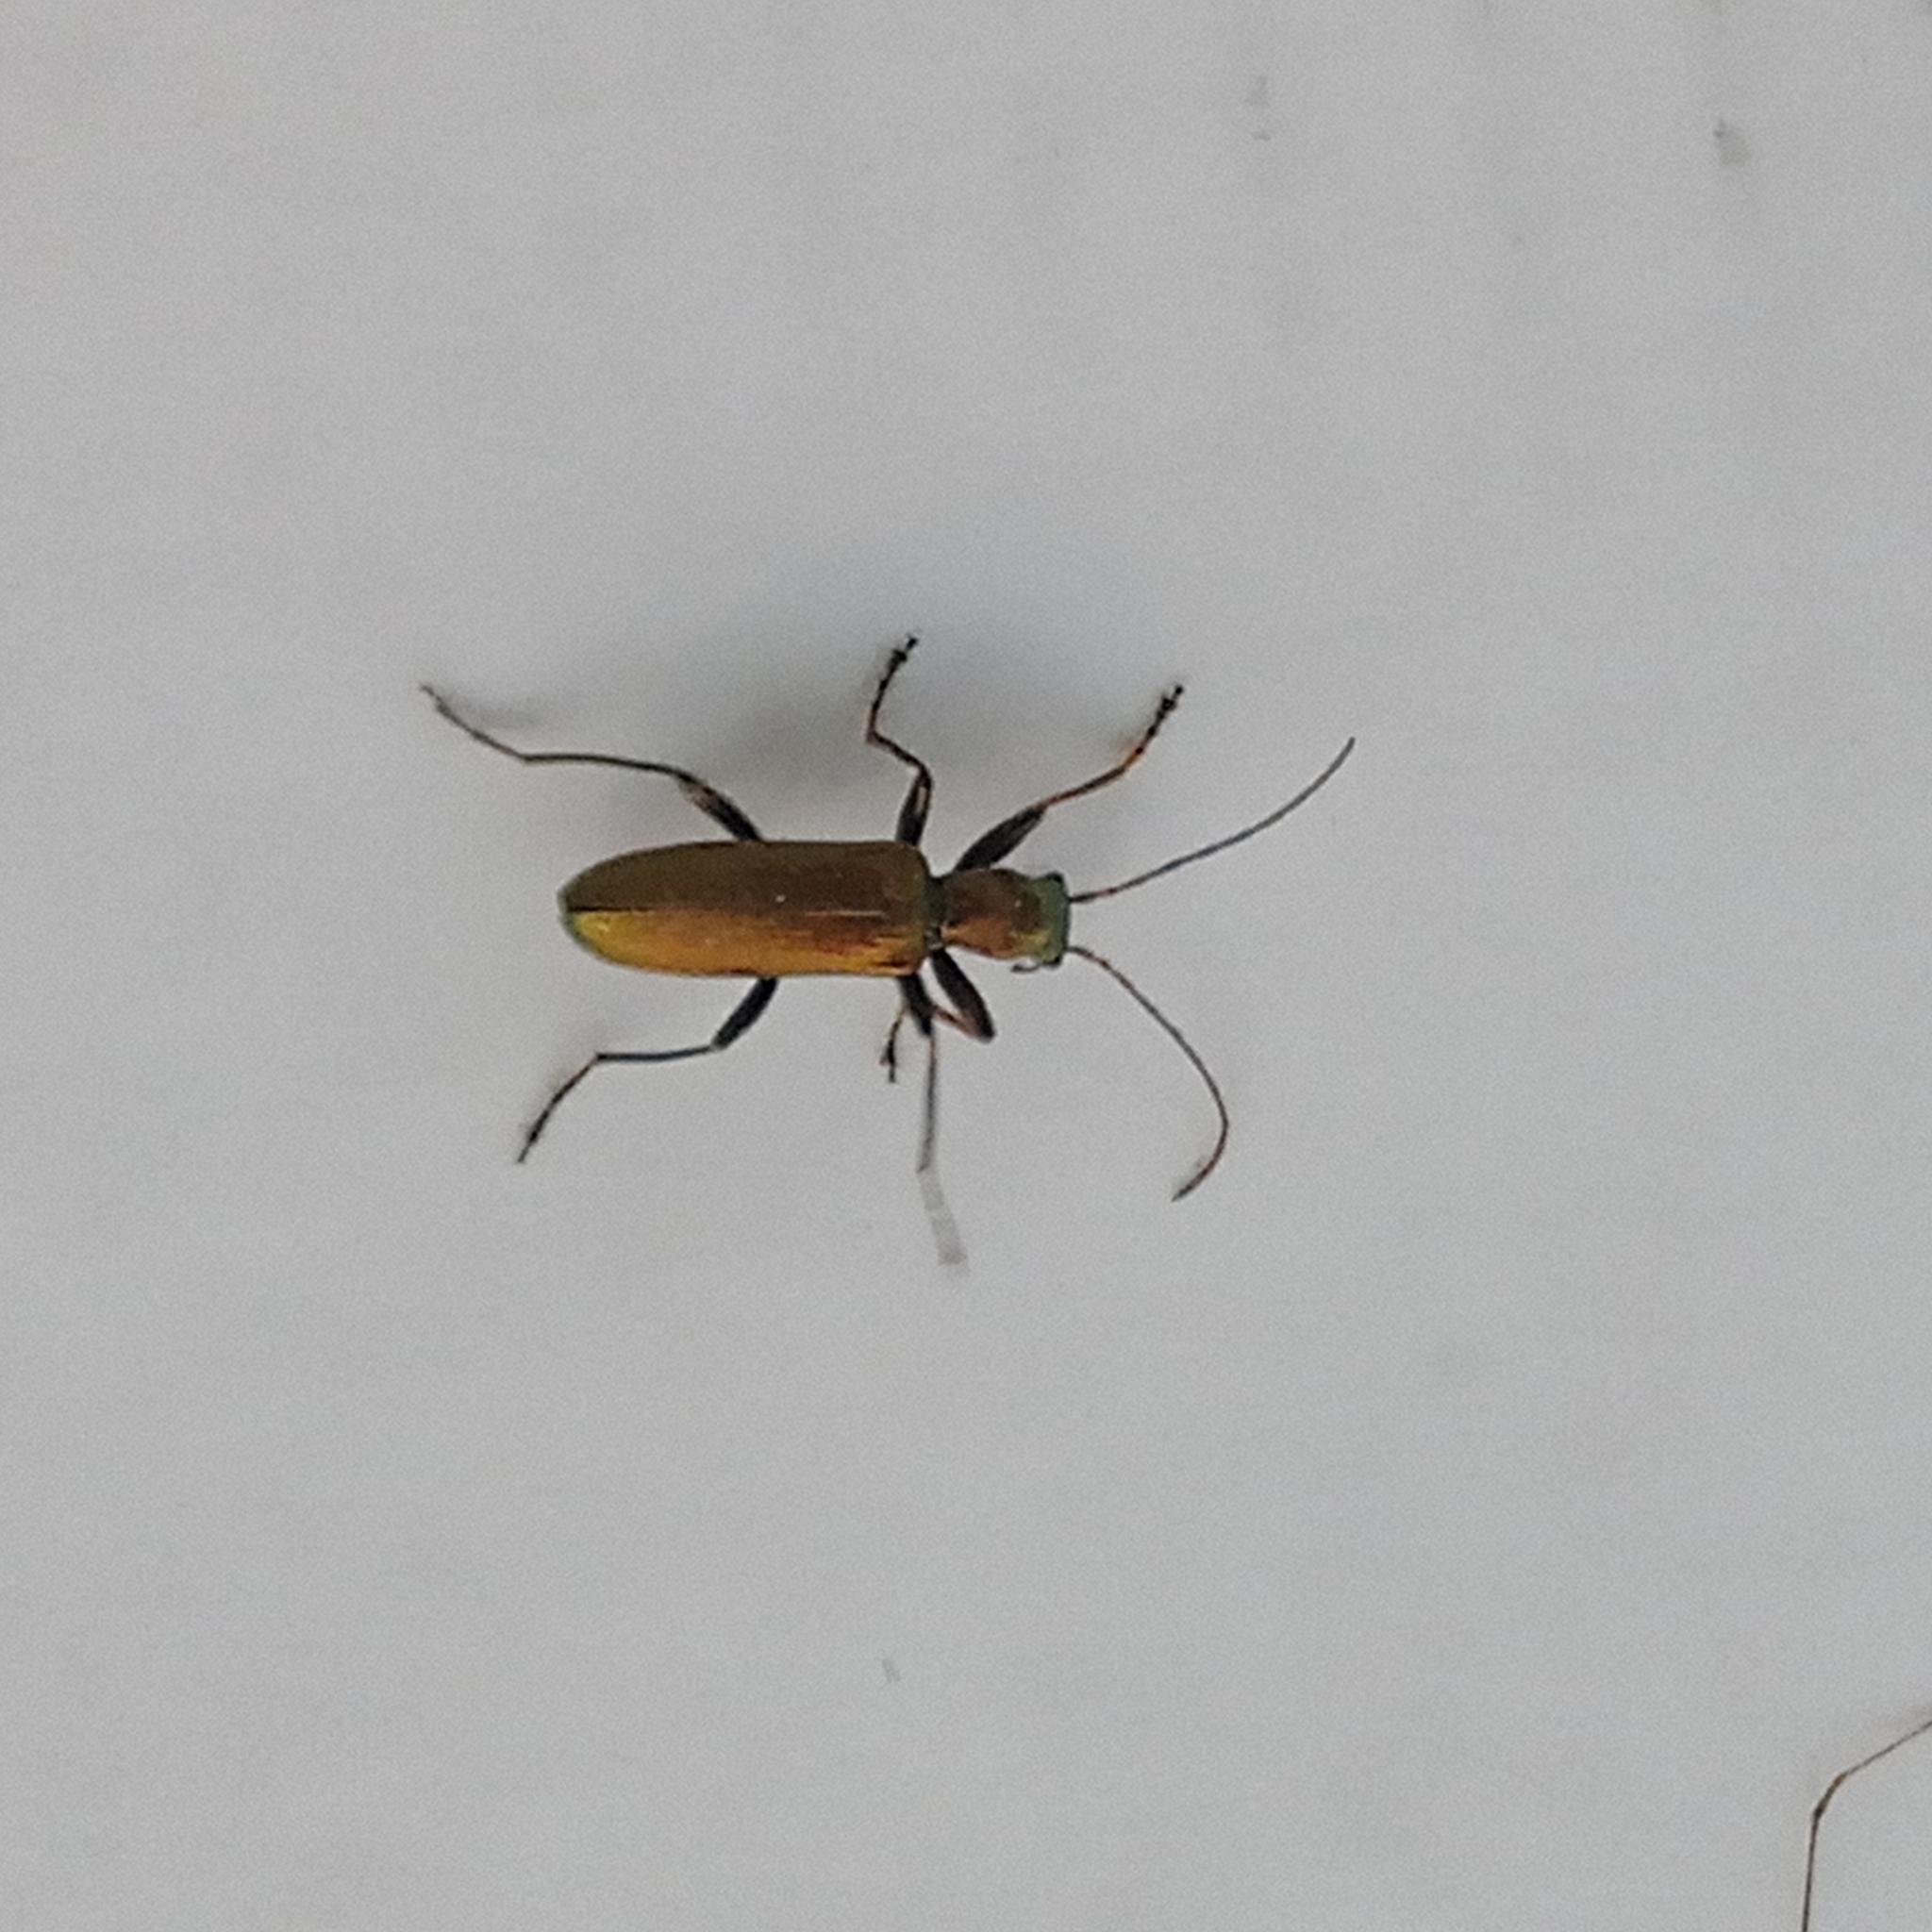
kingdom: Animalia
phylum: Arthropoda
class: Insecta
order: Coleoptera
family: Oedemeridae
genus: Chrysanthia
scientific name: Chrysanthia viridissima
